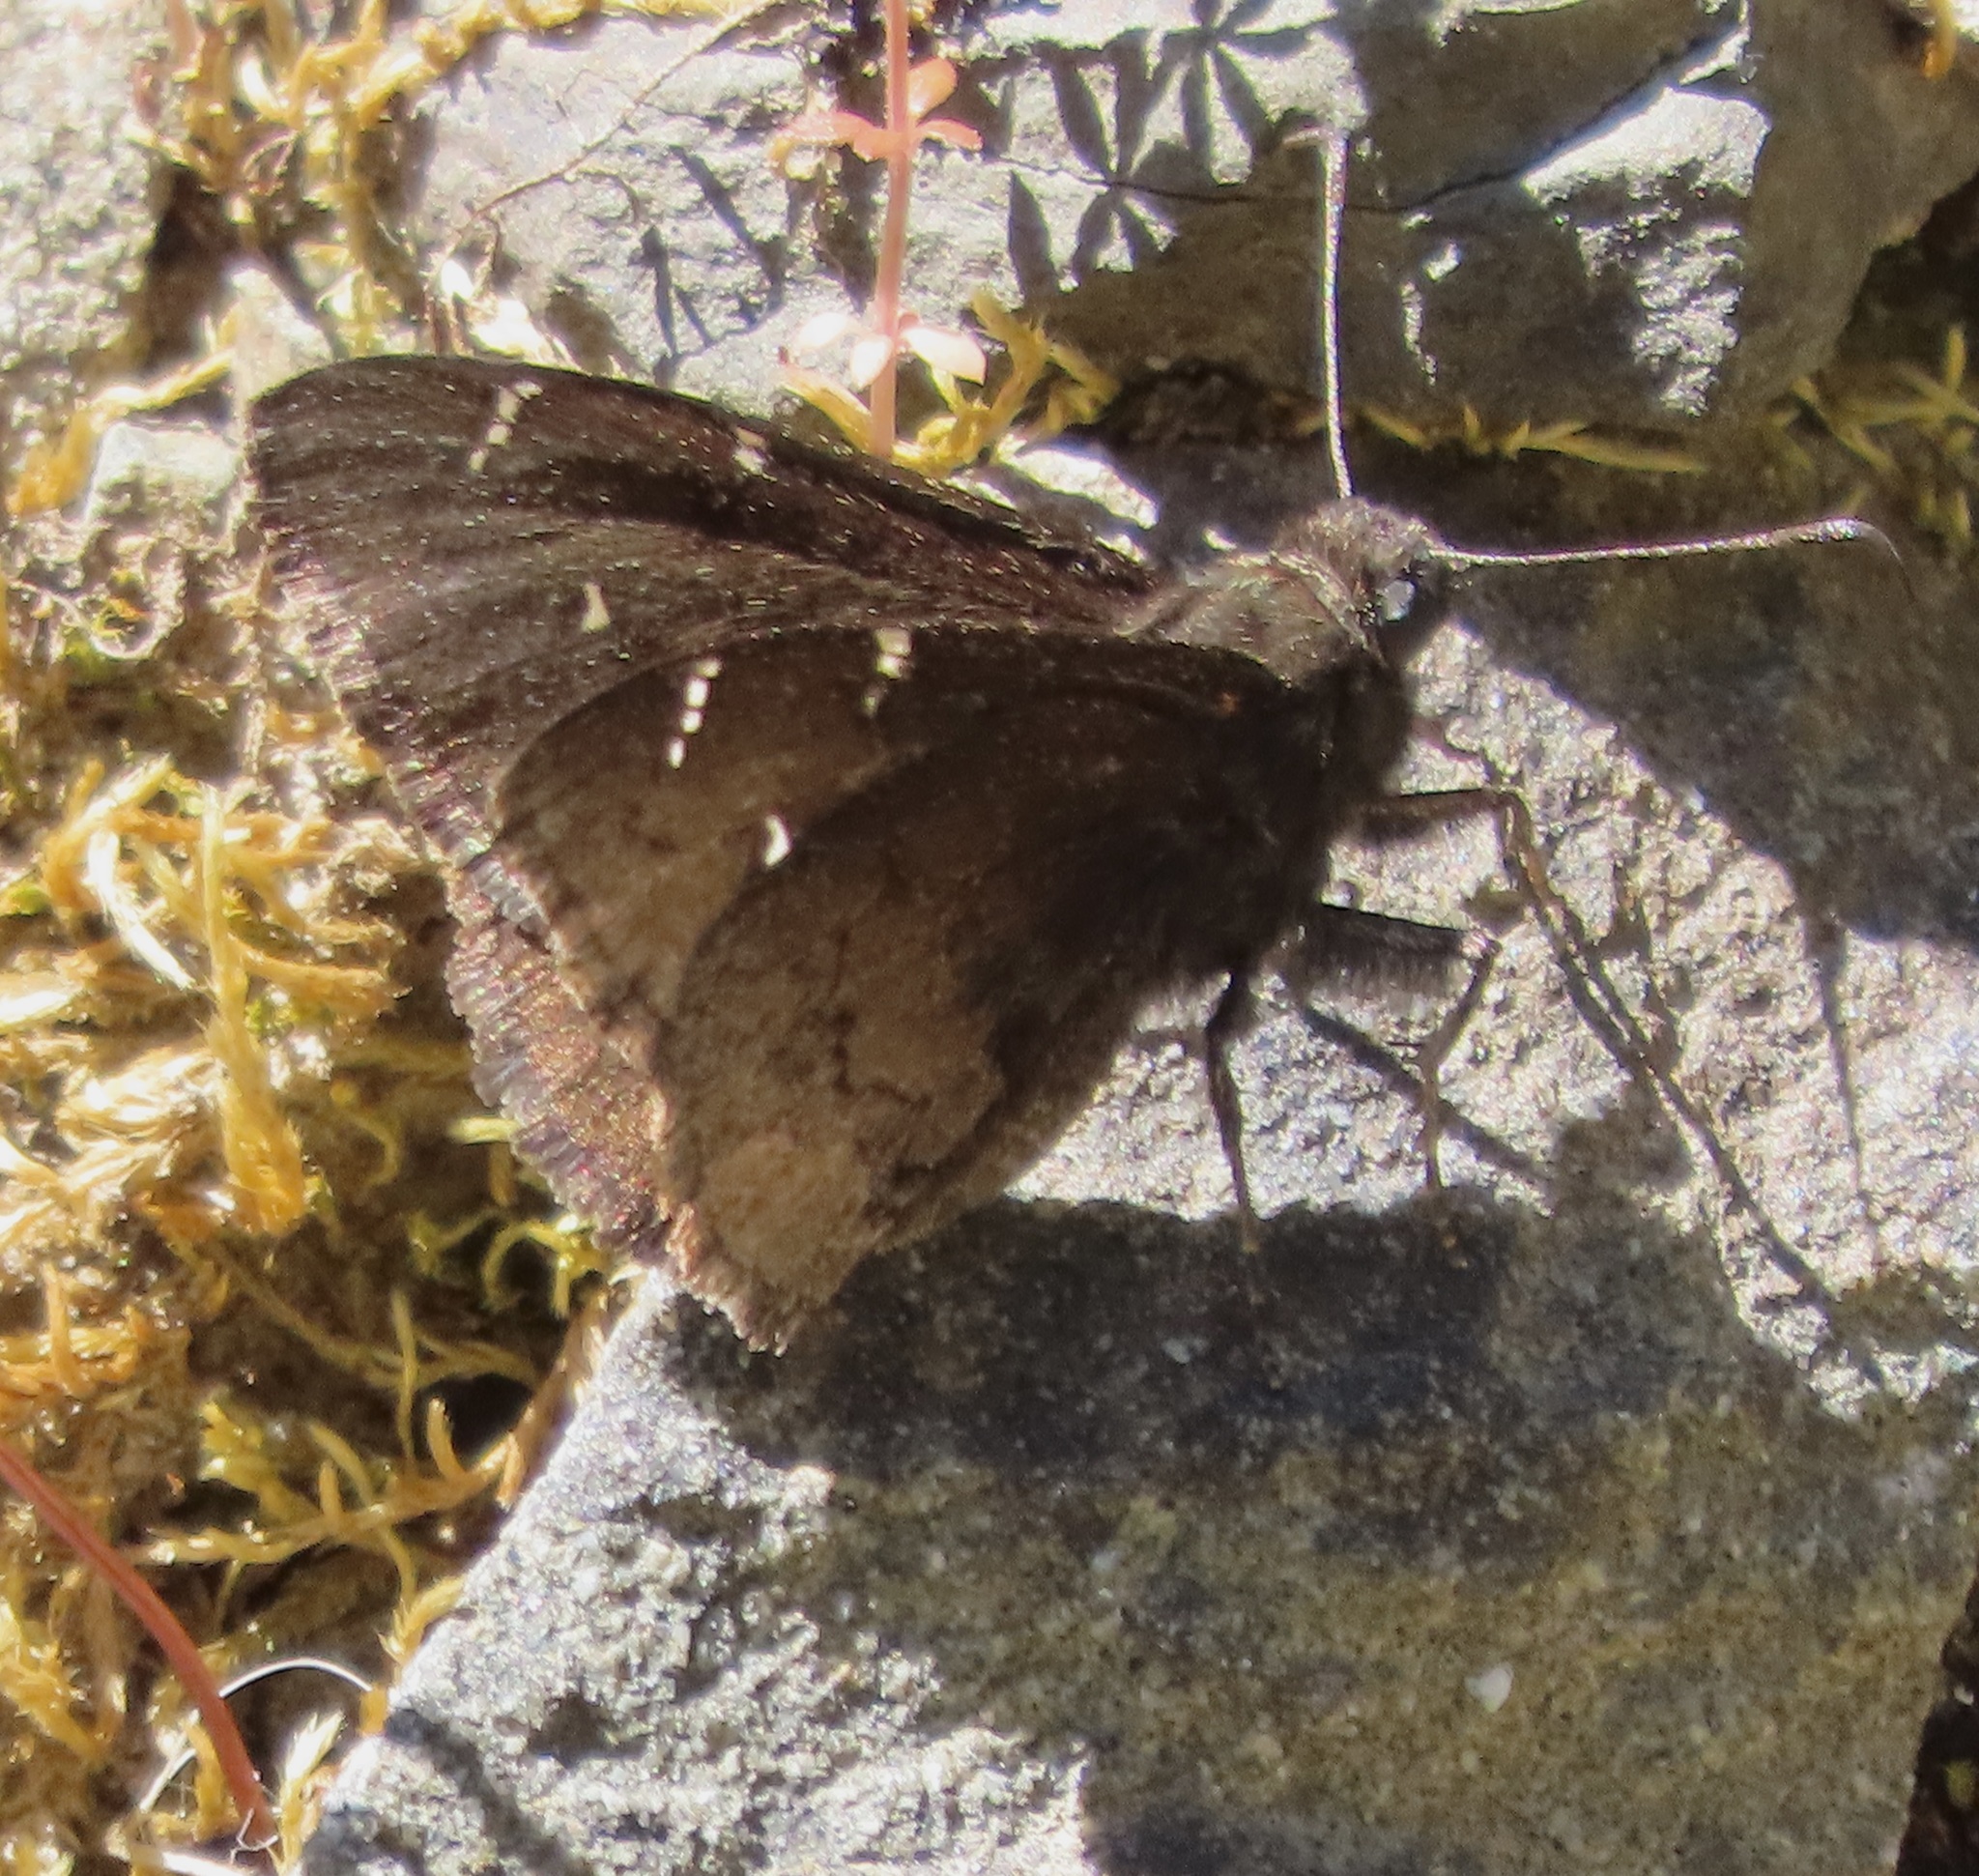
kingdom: Animalia
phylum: Arthropoda
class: Insecta
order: Lepidoptera
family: Hesperiidae
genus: Thorybes
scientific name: Thorybes pylades
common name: Northern cloudywing
